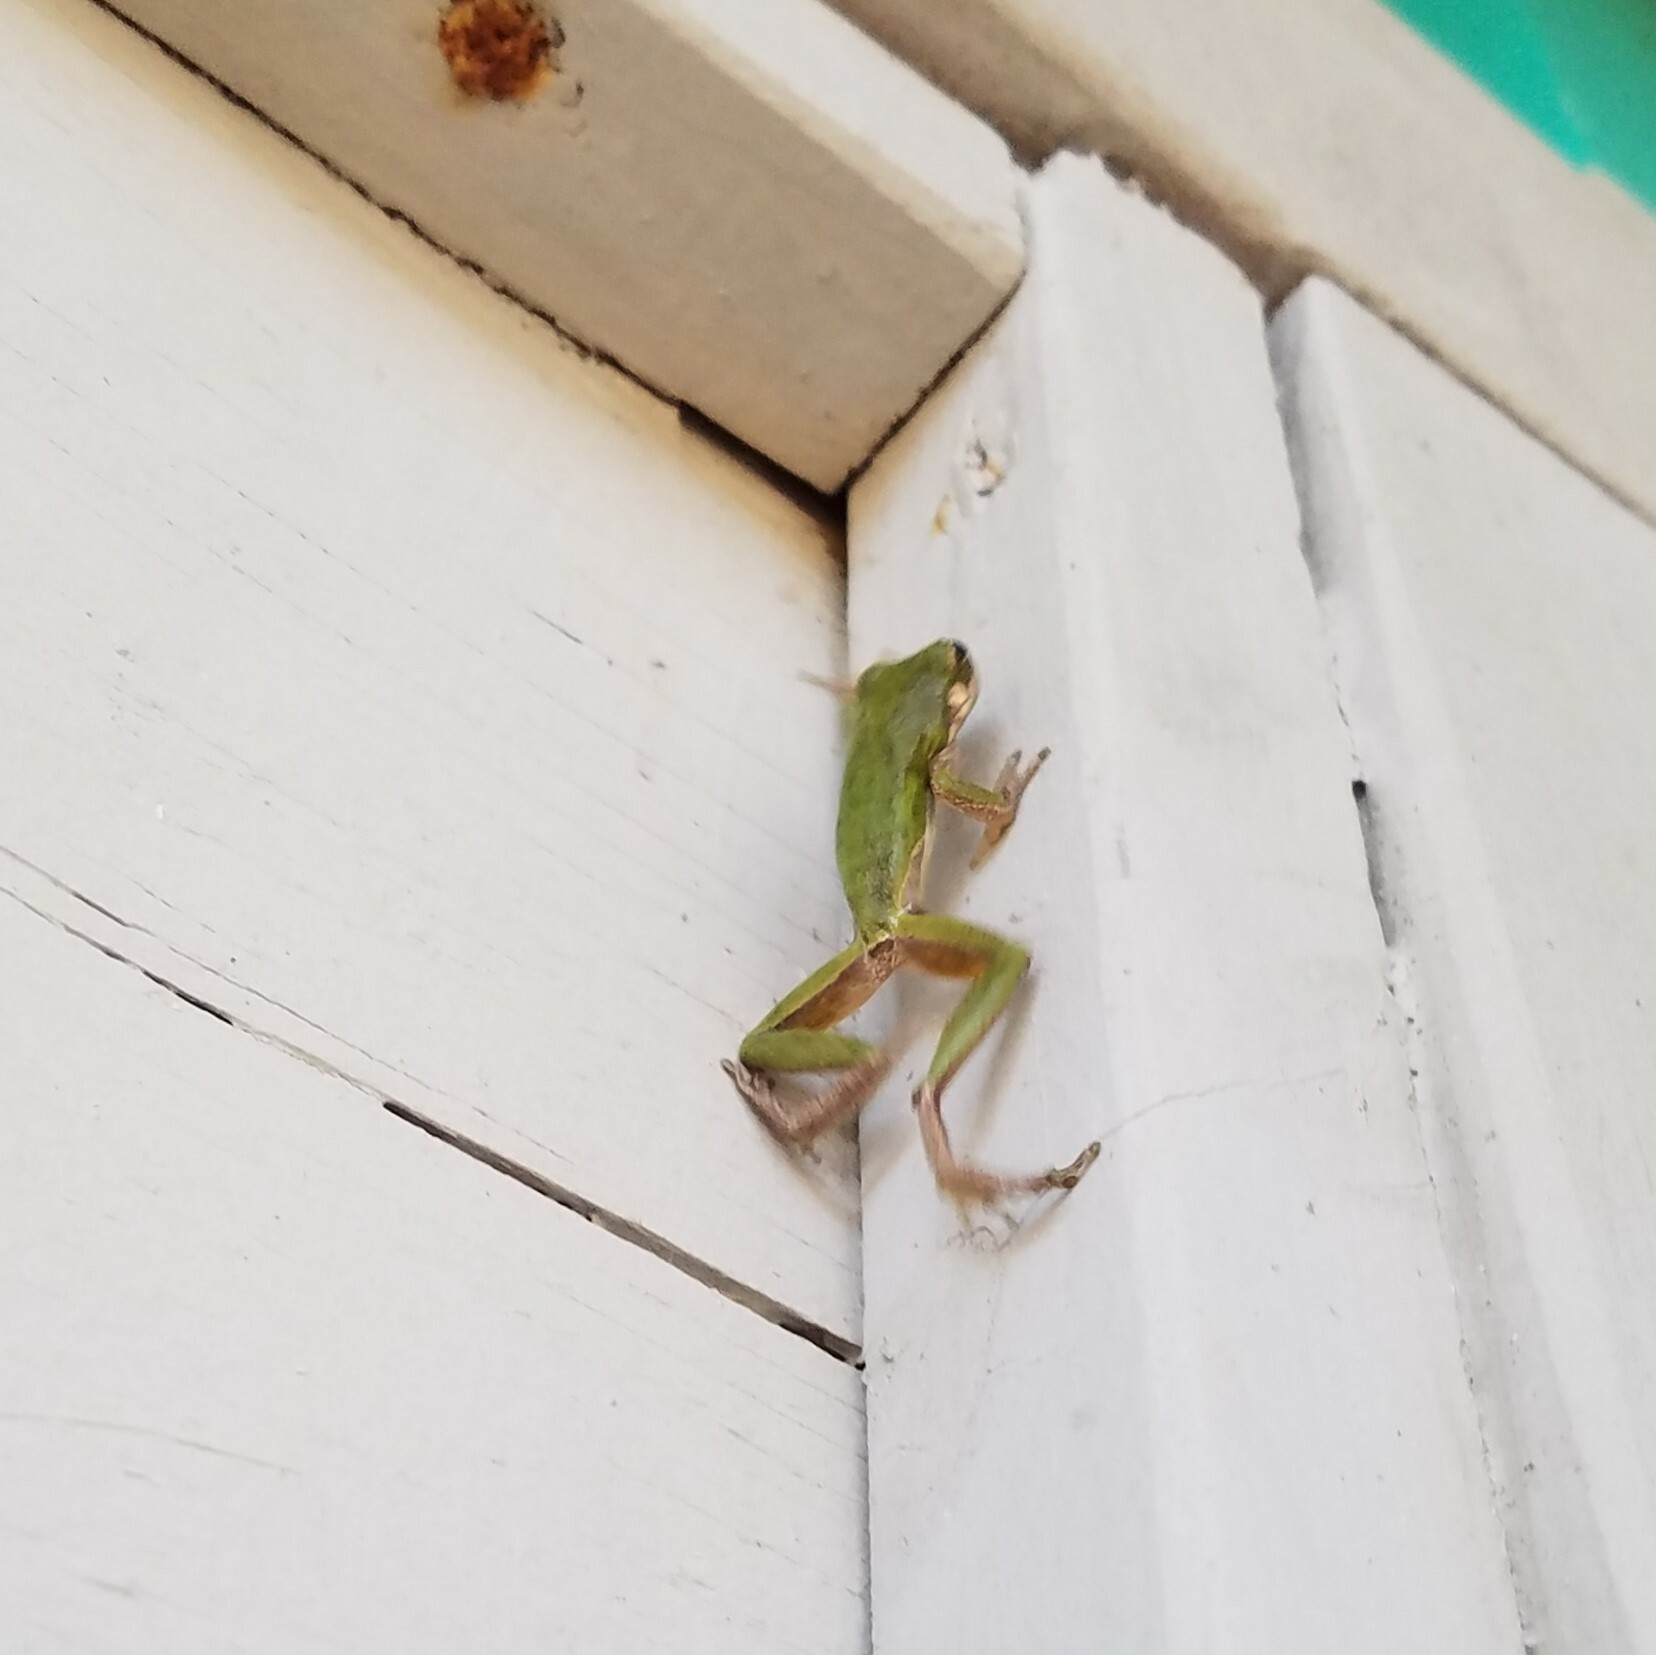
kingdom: Animalia
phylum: Chordata
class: Amphibia
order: Anura
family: Hylidae
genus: Dryophytes
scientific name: Dryophytes squirellus
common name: Squirrel treefrog
